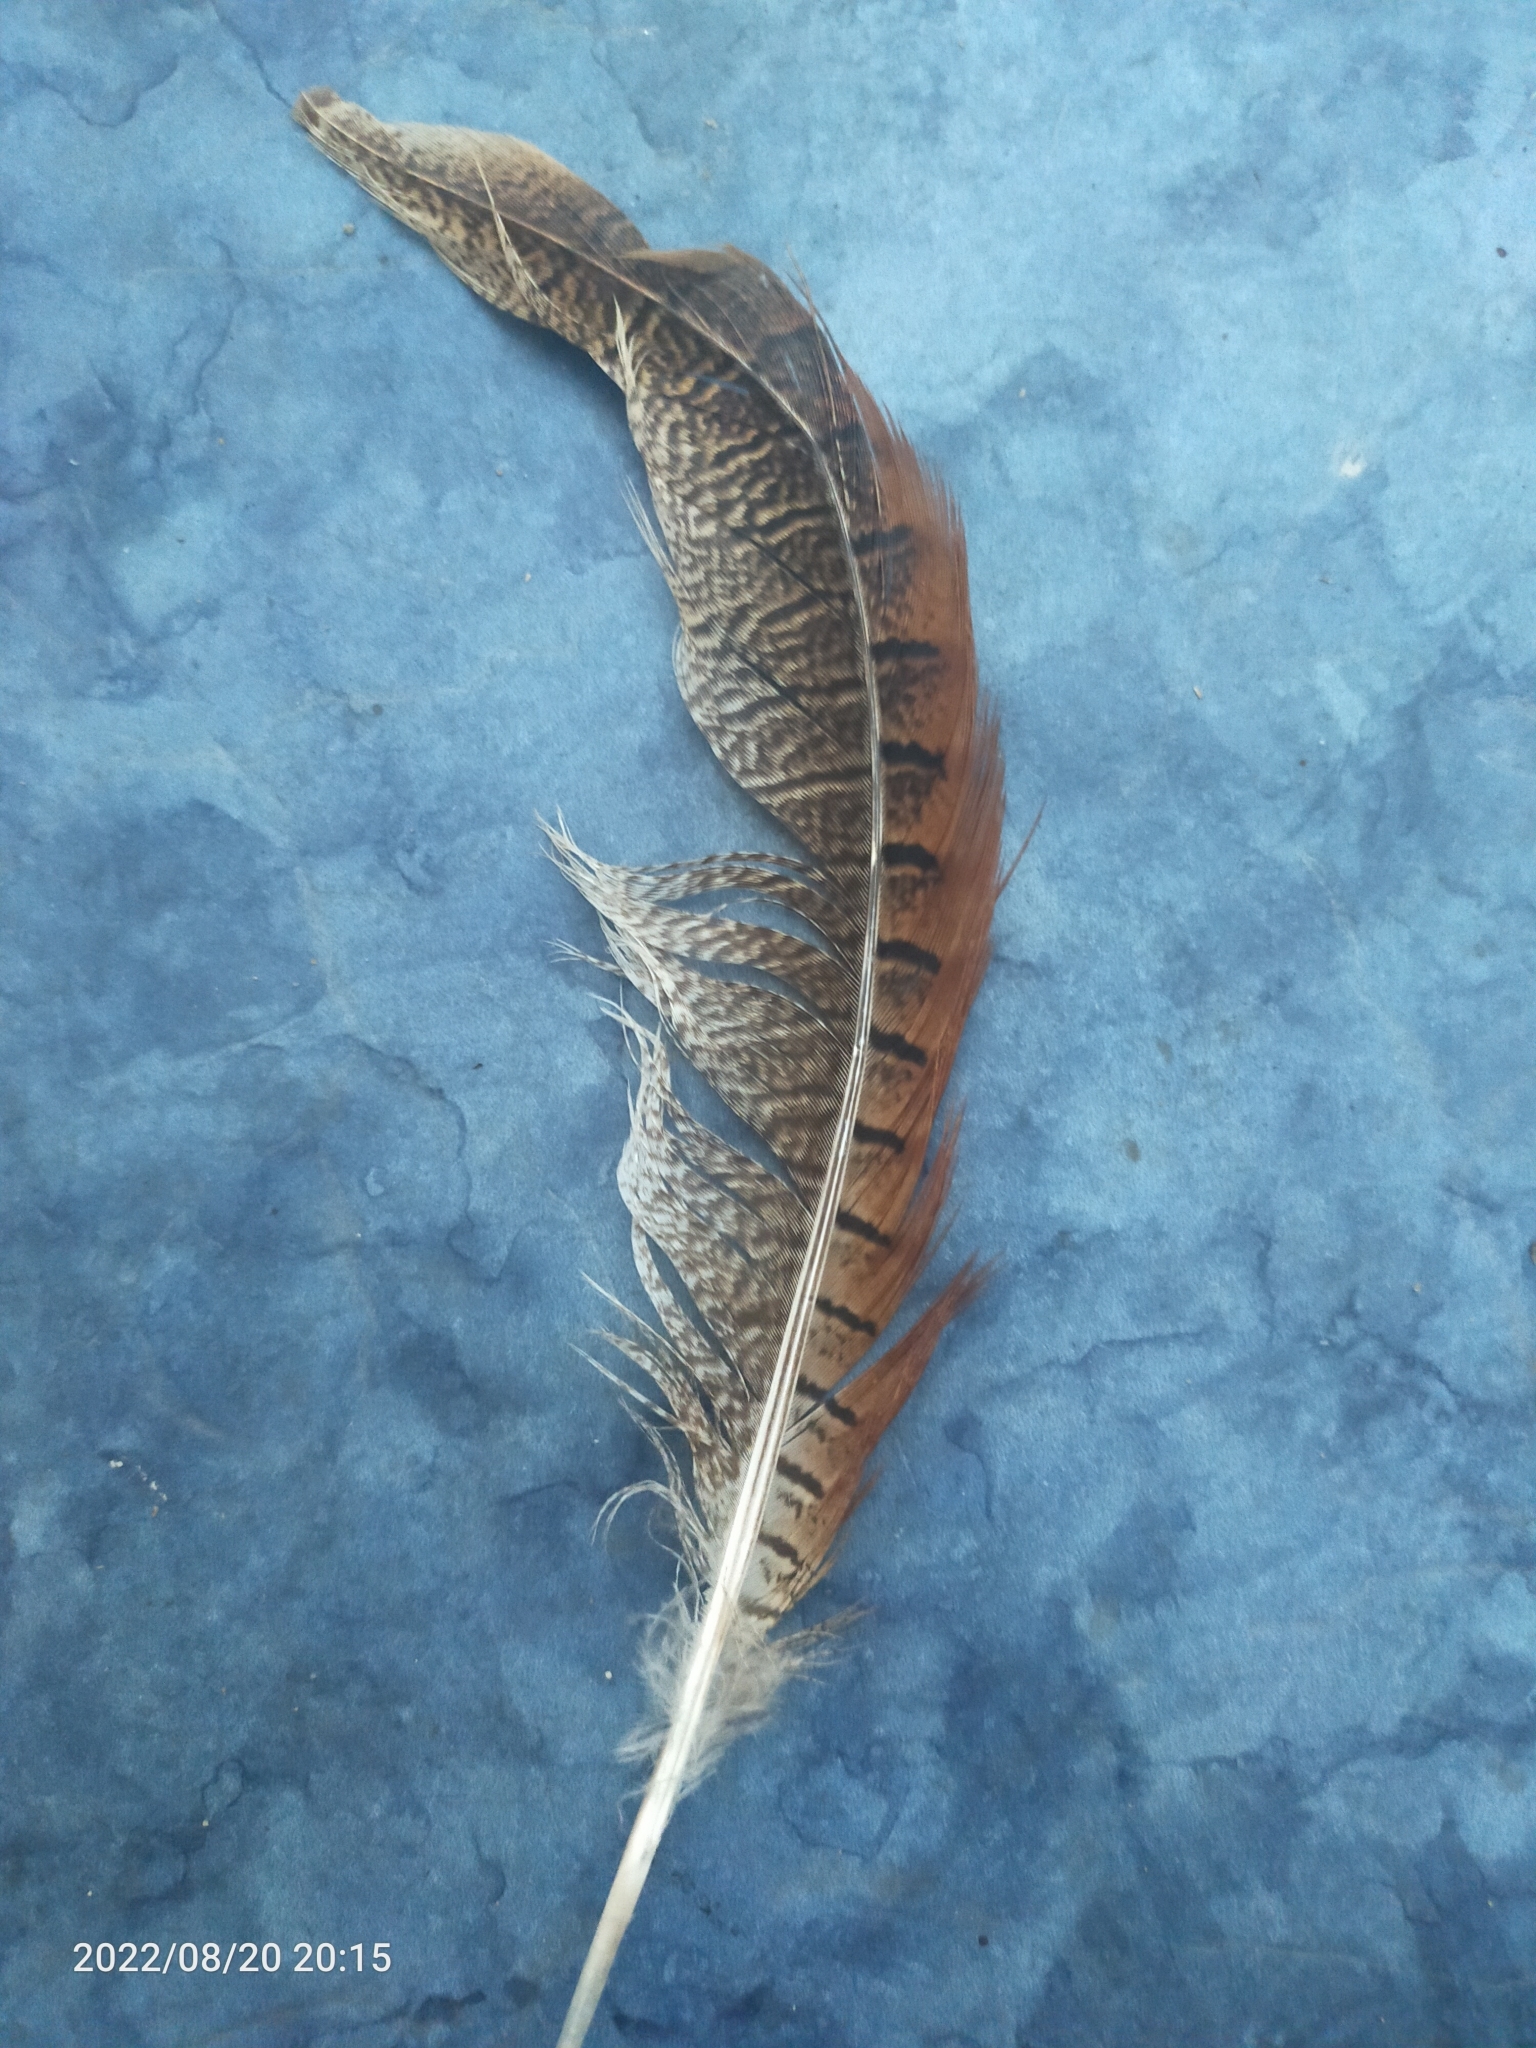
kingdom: Animalia
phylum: Chordata
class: Aves
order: Galliformes
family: Phasianidae
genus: Phasianus
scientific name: Phasianus colchicus
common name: Common pheasant
